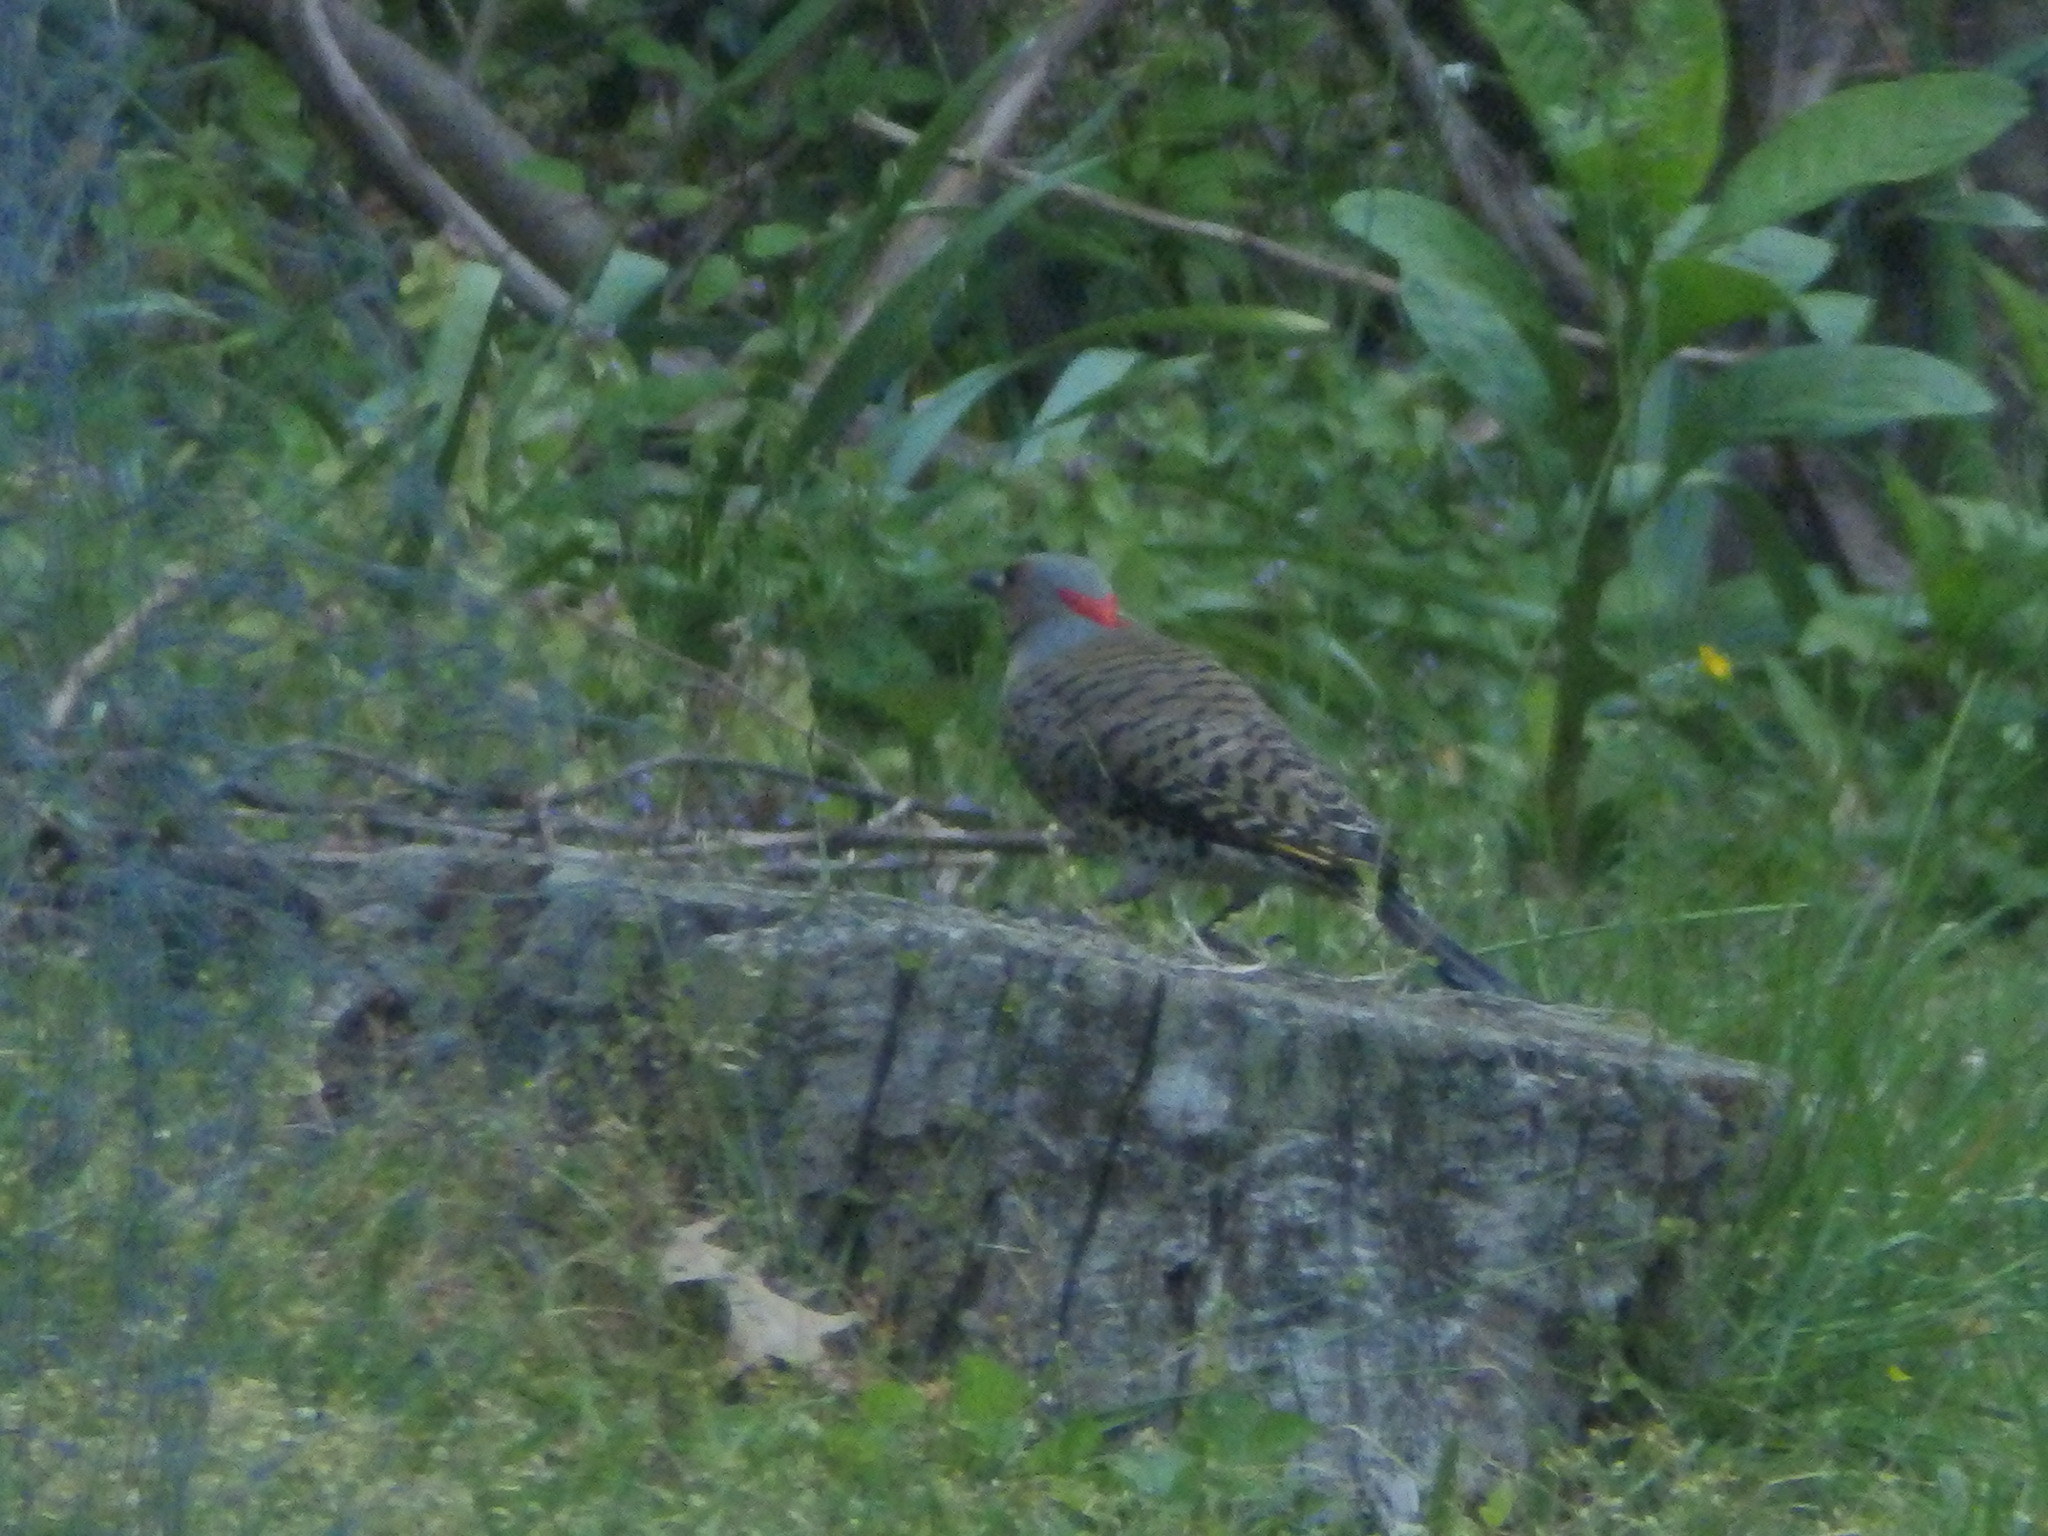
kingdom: Animalia
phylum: Chordata
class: Aves
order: Piciformes
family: Picidae
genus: Colaptes
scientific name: Colaptes auratus
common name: Northern flicker
